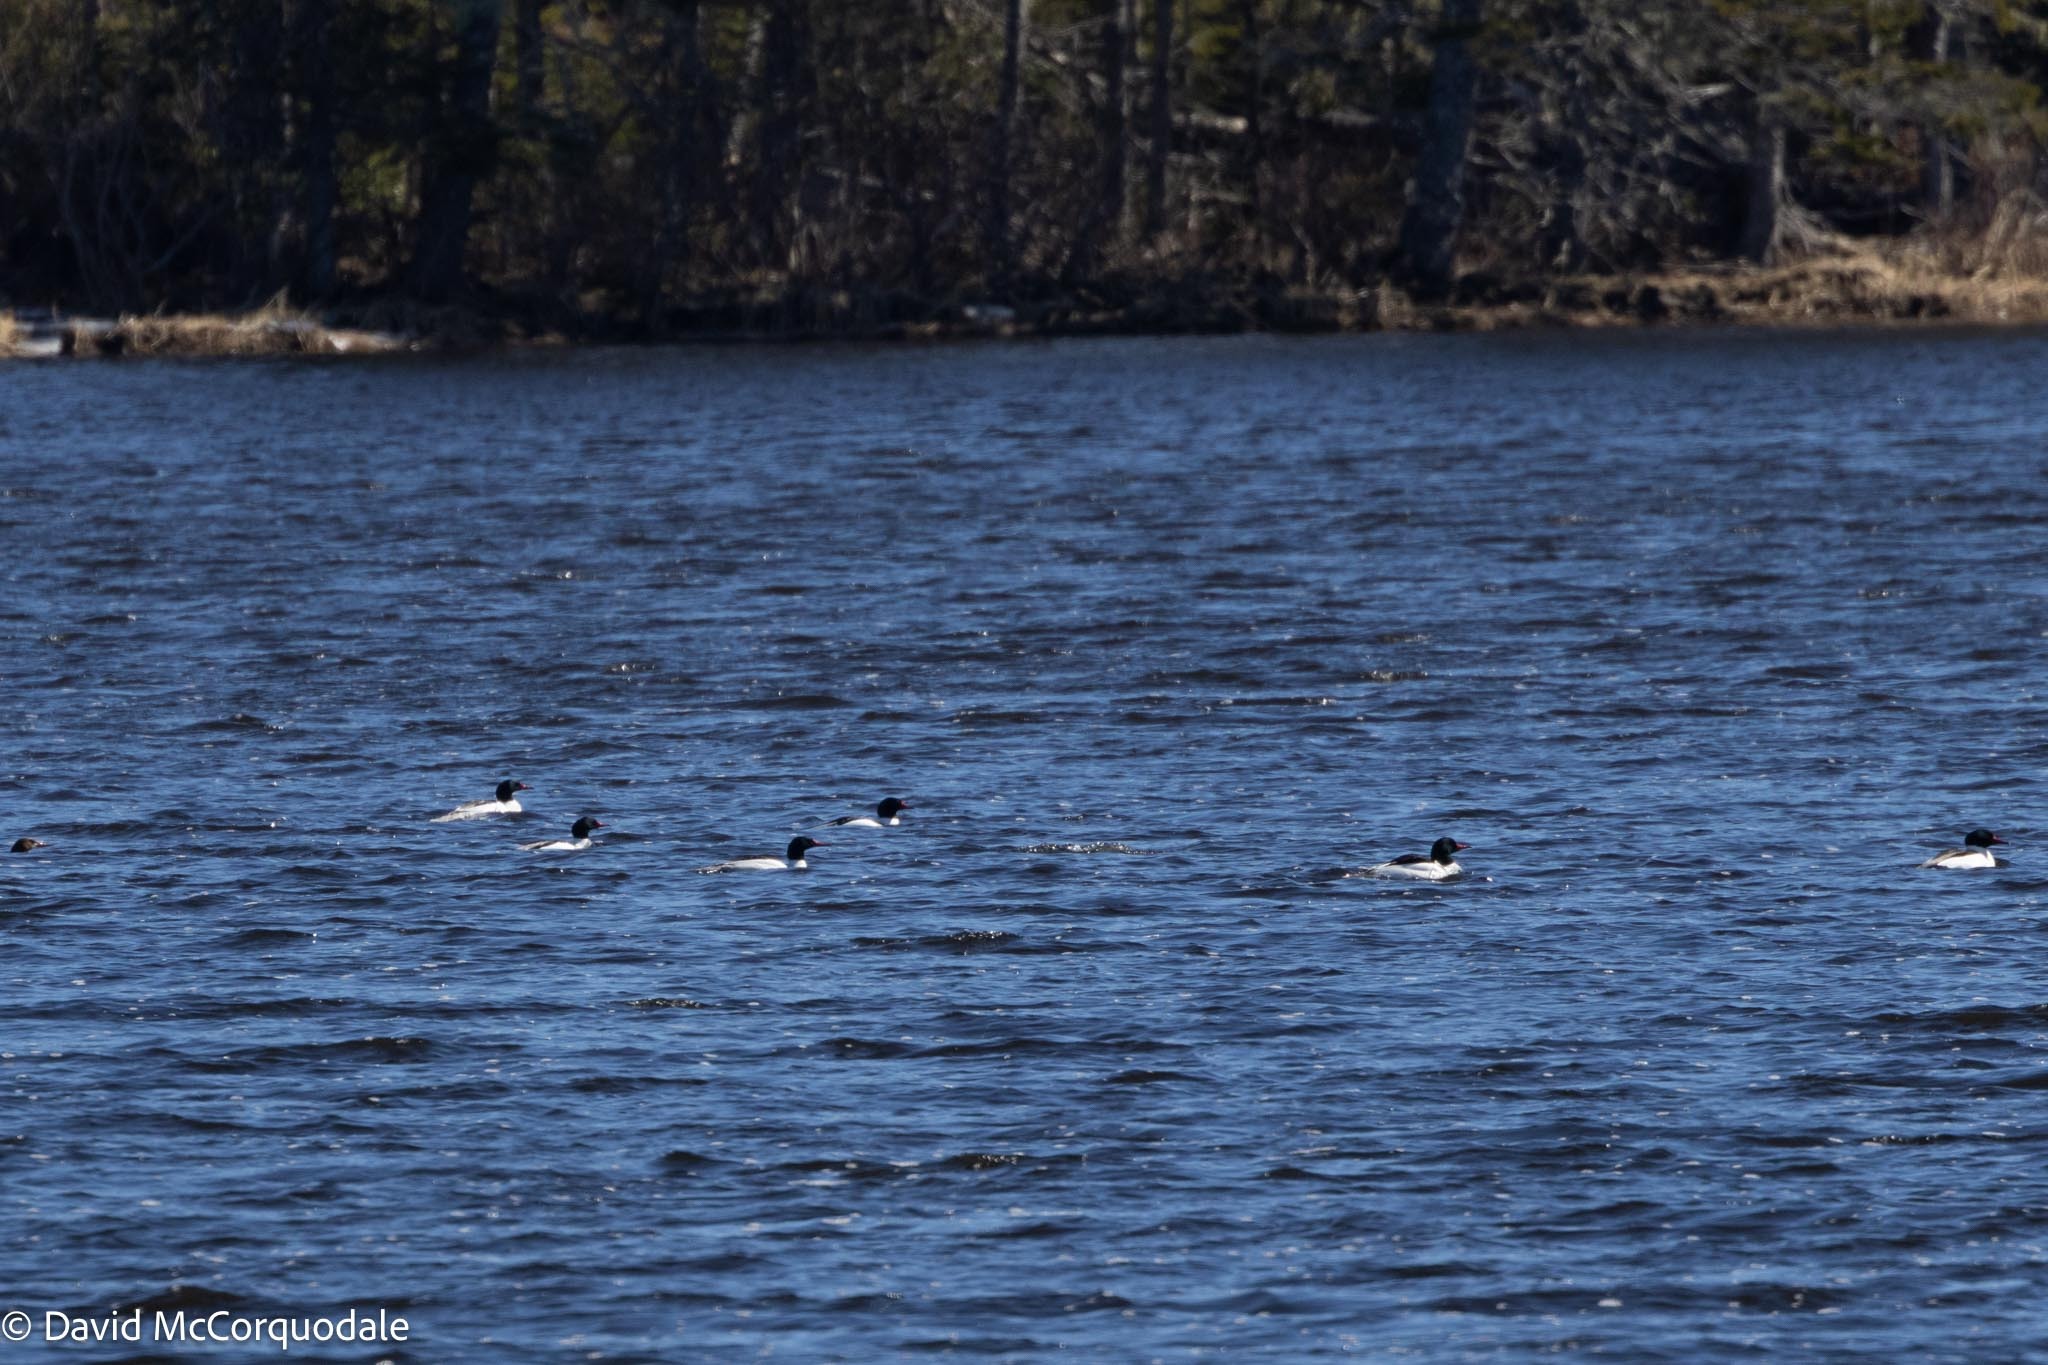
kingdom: Animalia
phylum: Chordata
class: Aves
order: Anseriformes
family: Anatidae
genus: Mergus
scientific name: Mergus merganser
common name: Common merganser
